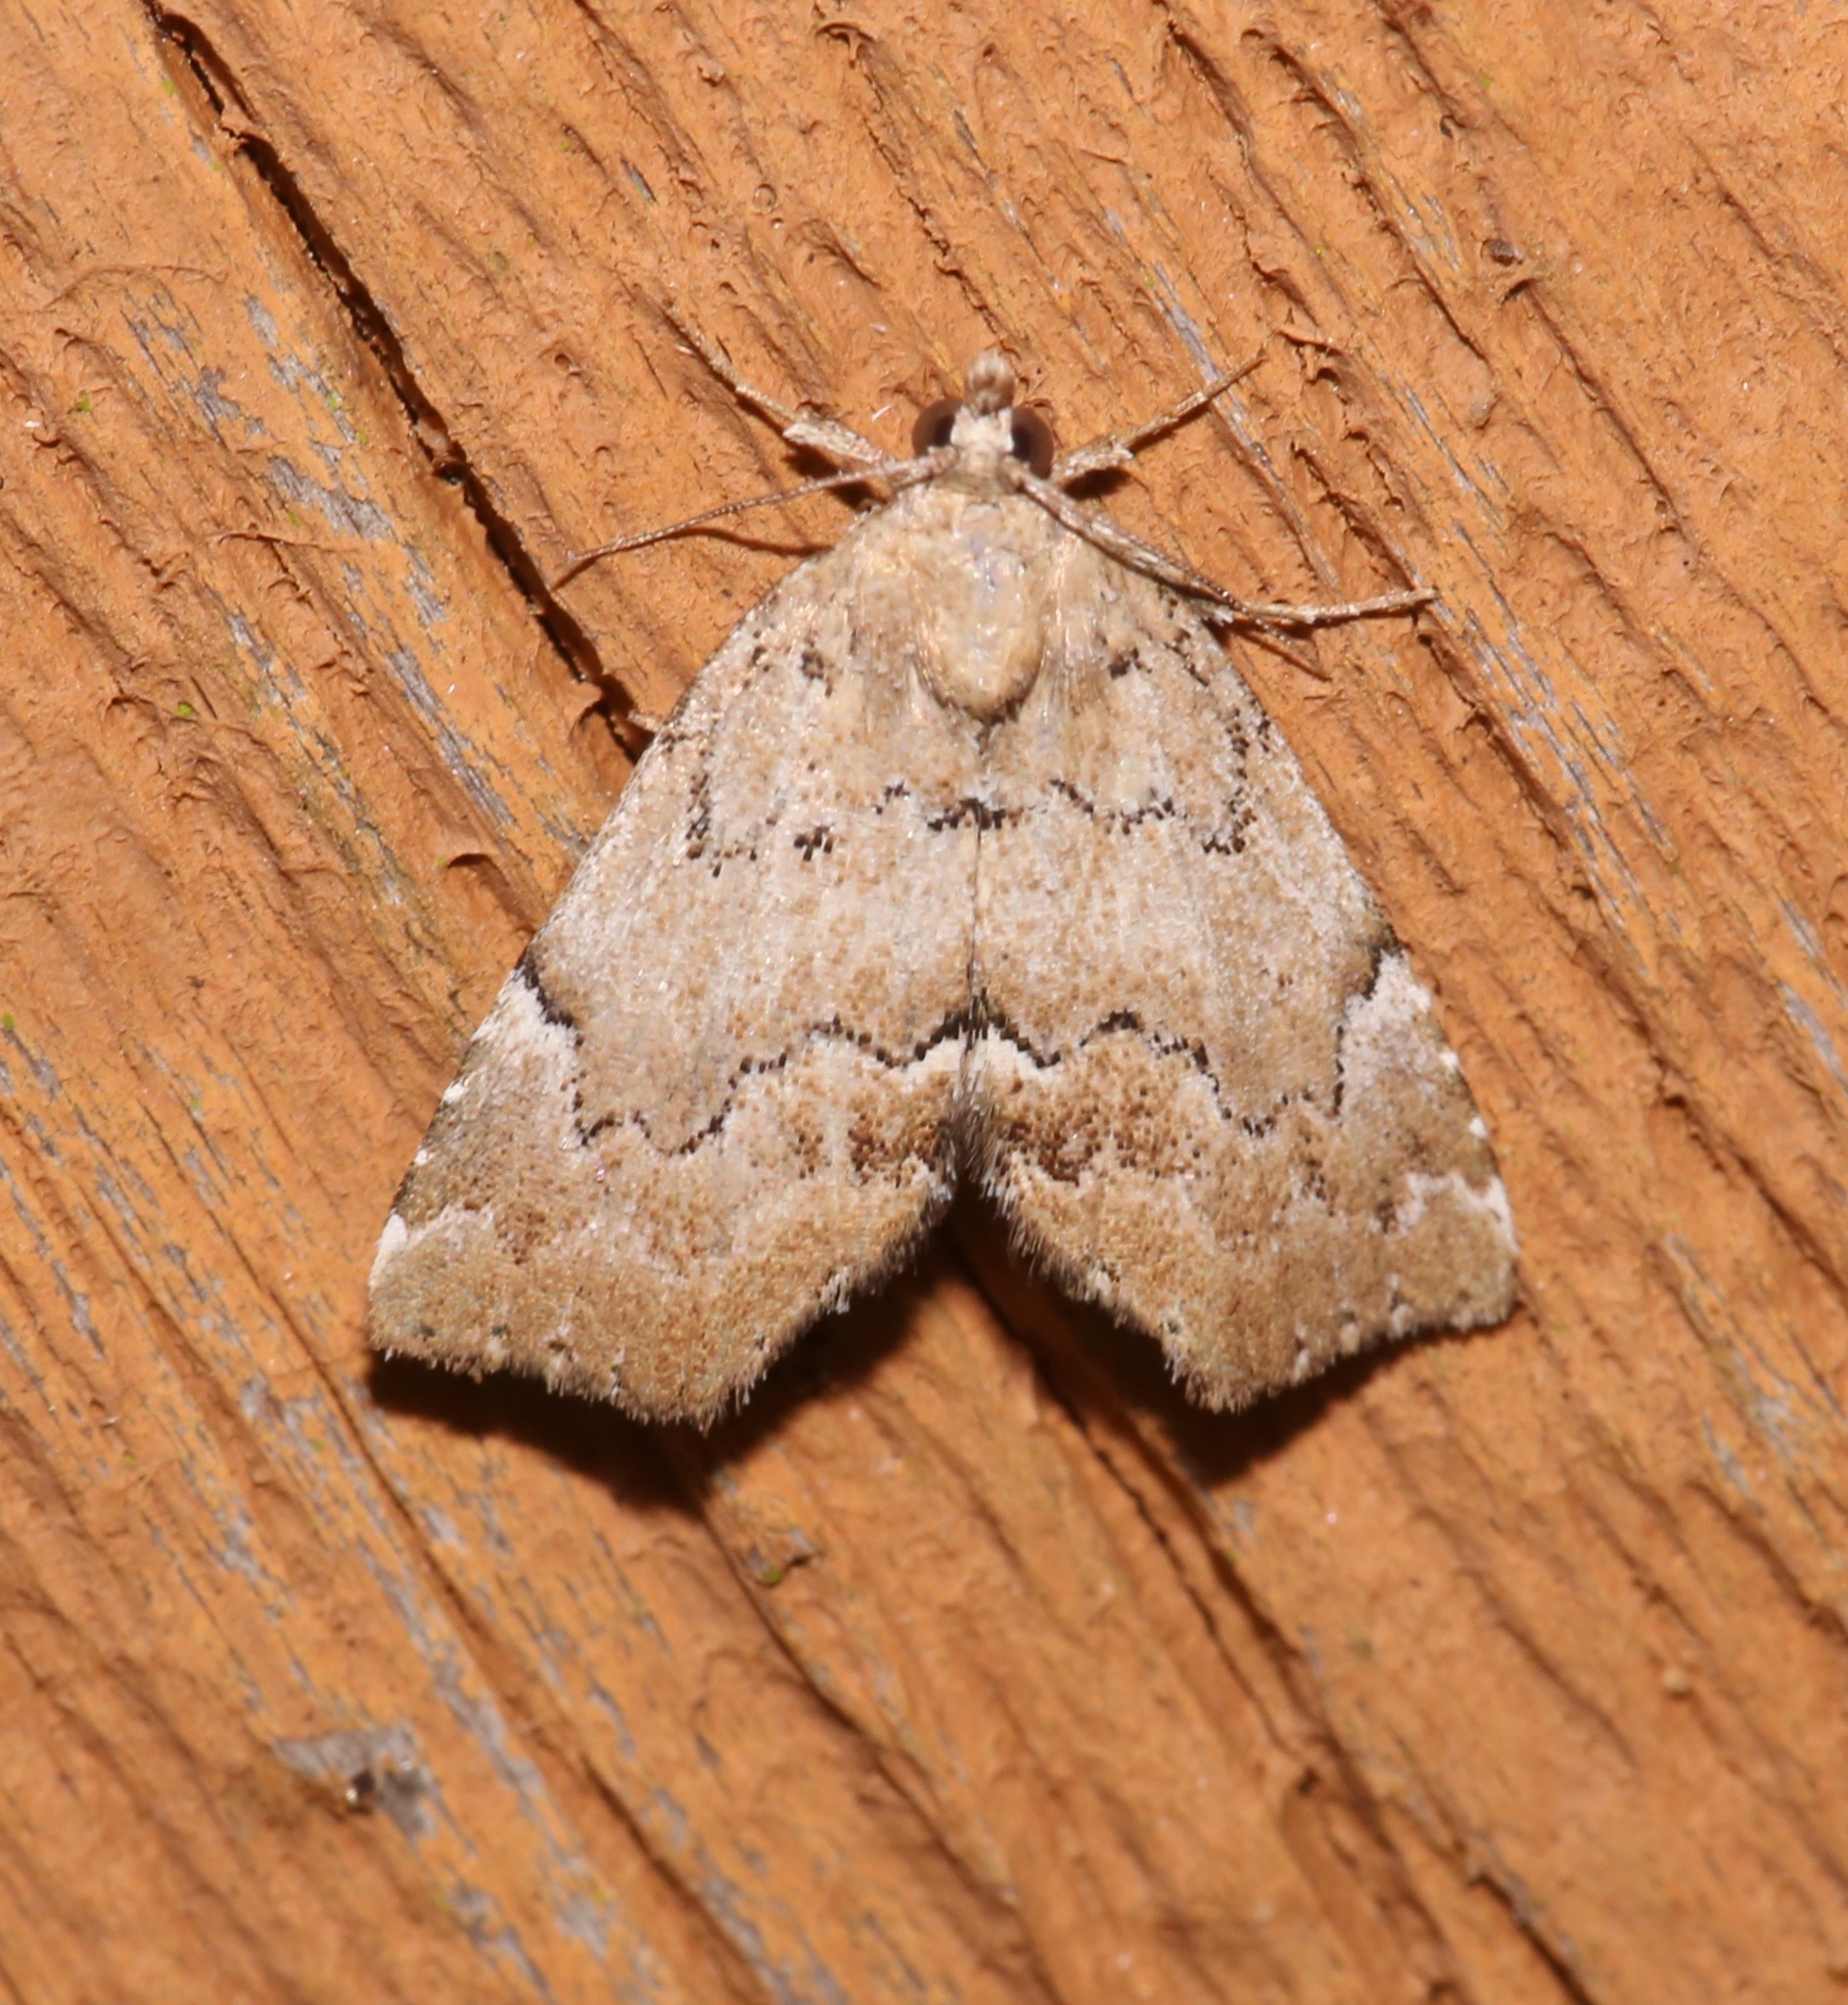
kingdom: Animalia
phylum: Arthropoda
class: Insecta
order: Lepidoptera
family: Erebidae
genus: Cutina
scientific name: Cutina aluticolor
